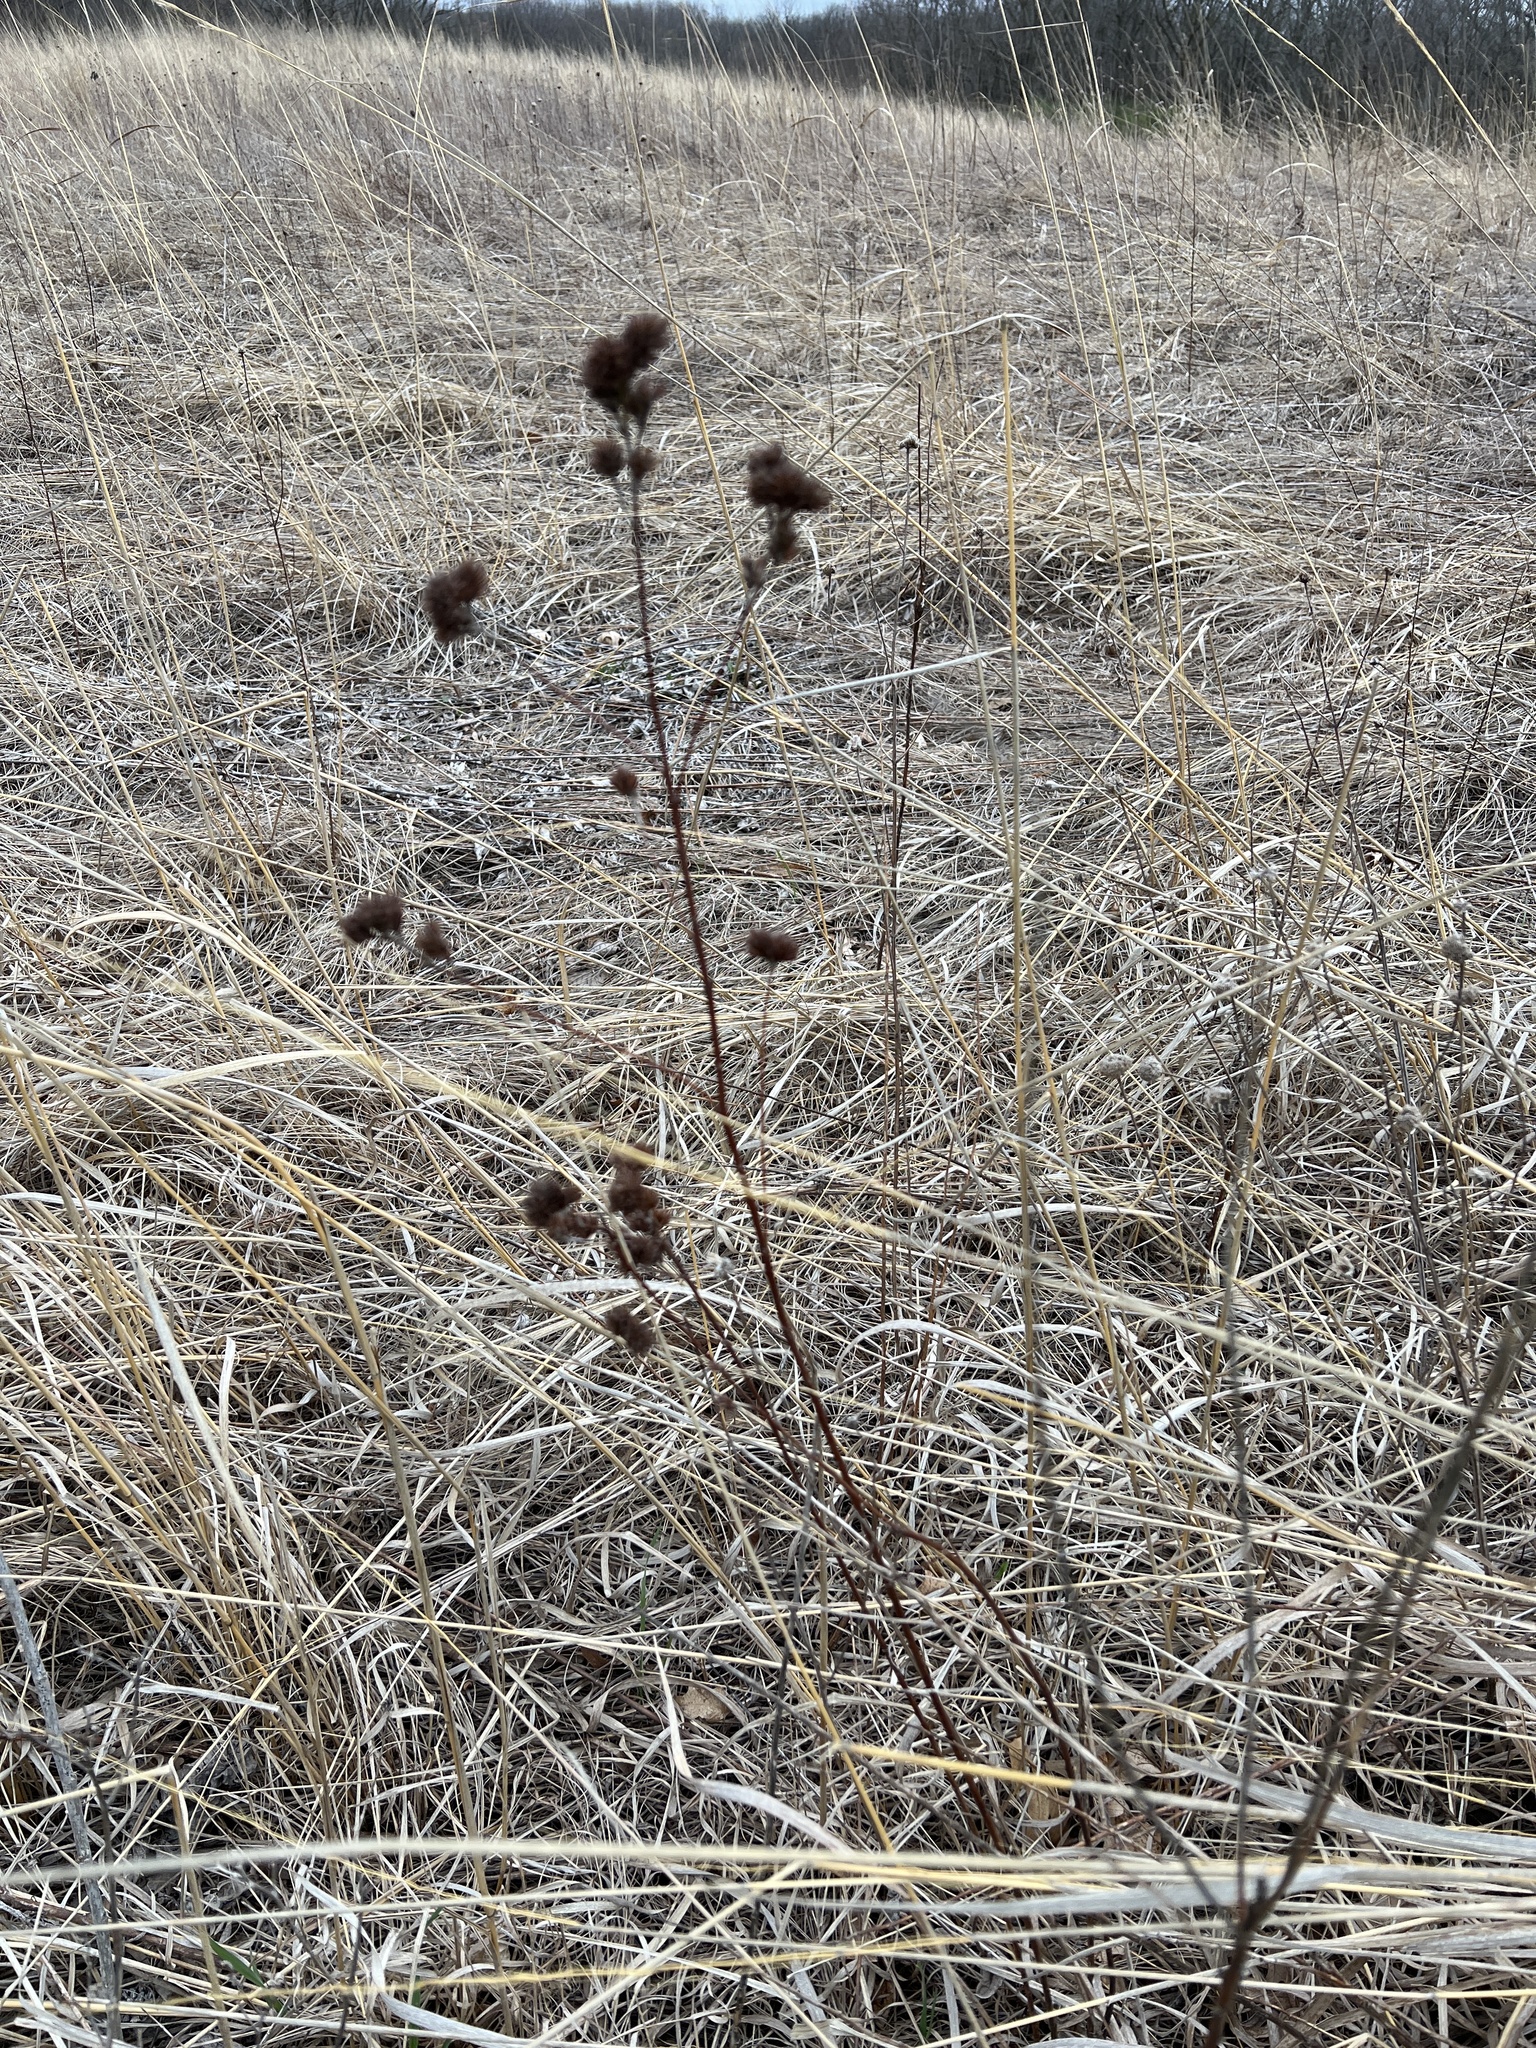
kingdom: Plantae
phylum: Tracheophyta
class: Magnoliopsida
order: Fabales
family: Fabaceae
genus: Lespedeza
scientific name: Lespedeza capitata
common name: Dusty clover
